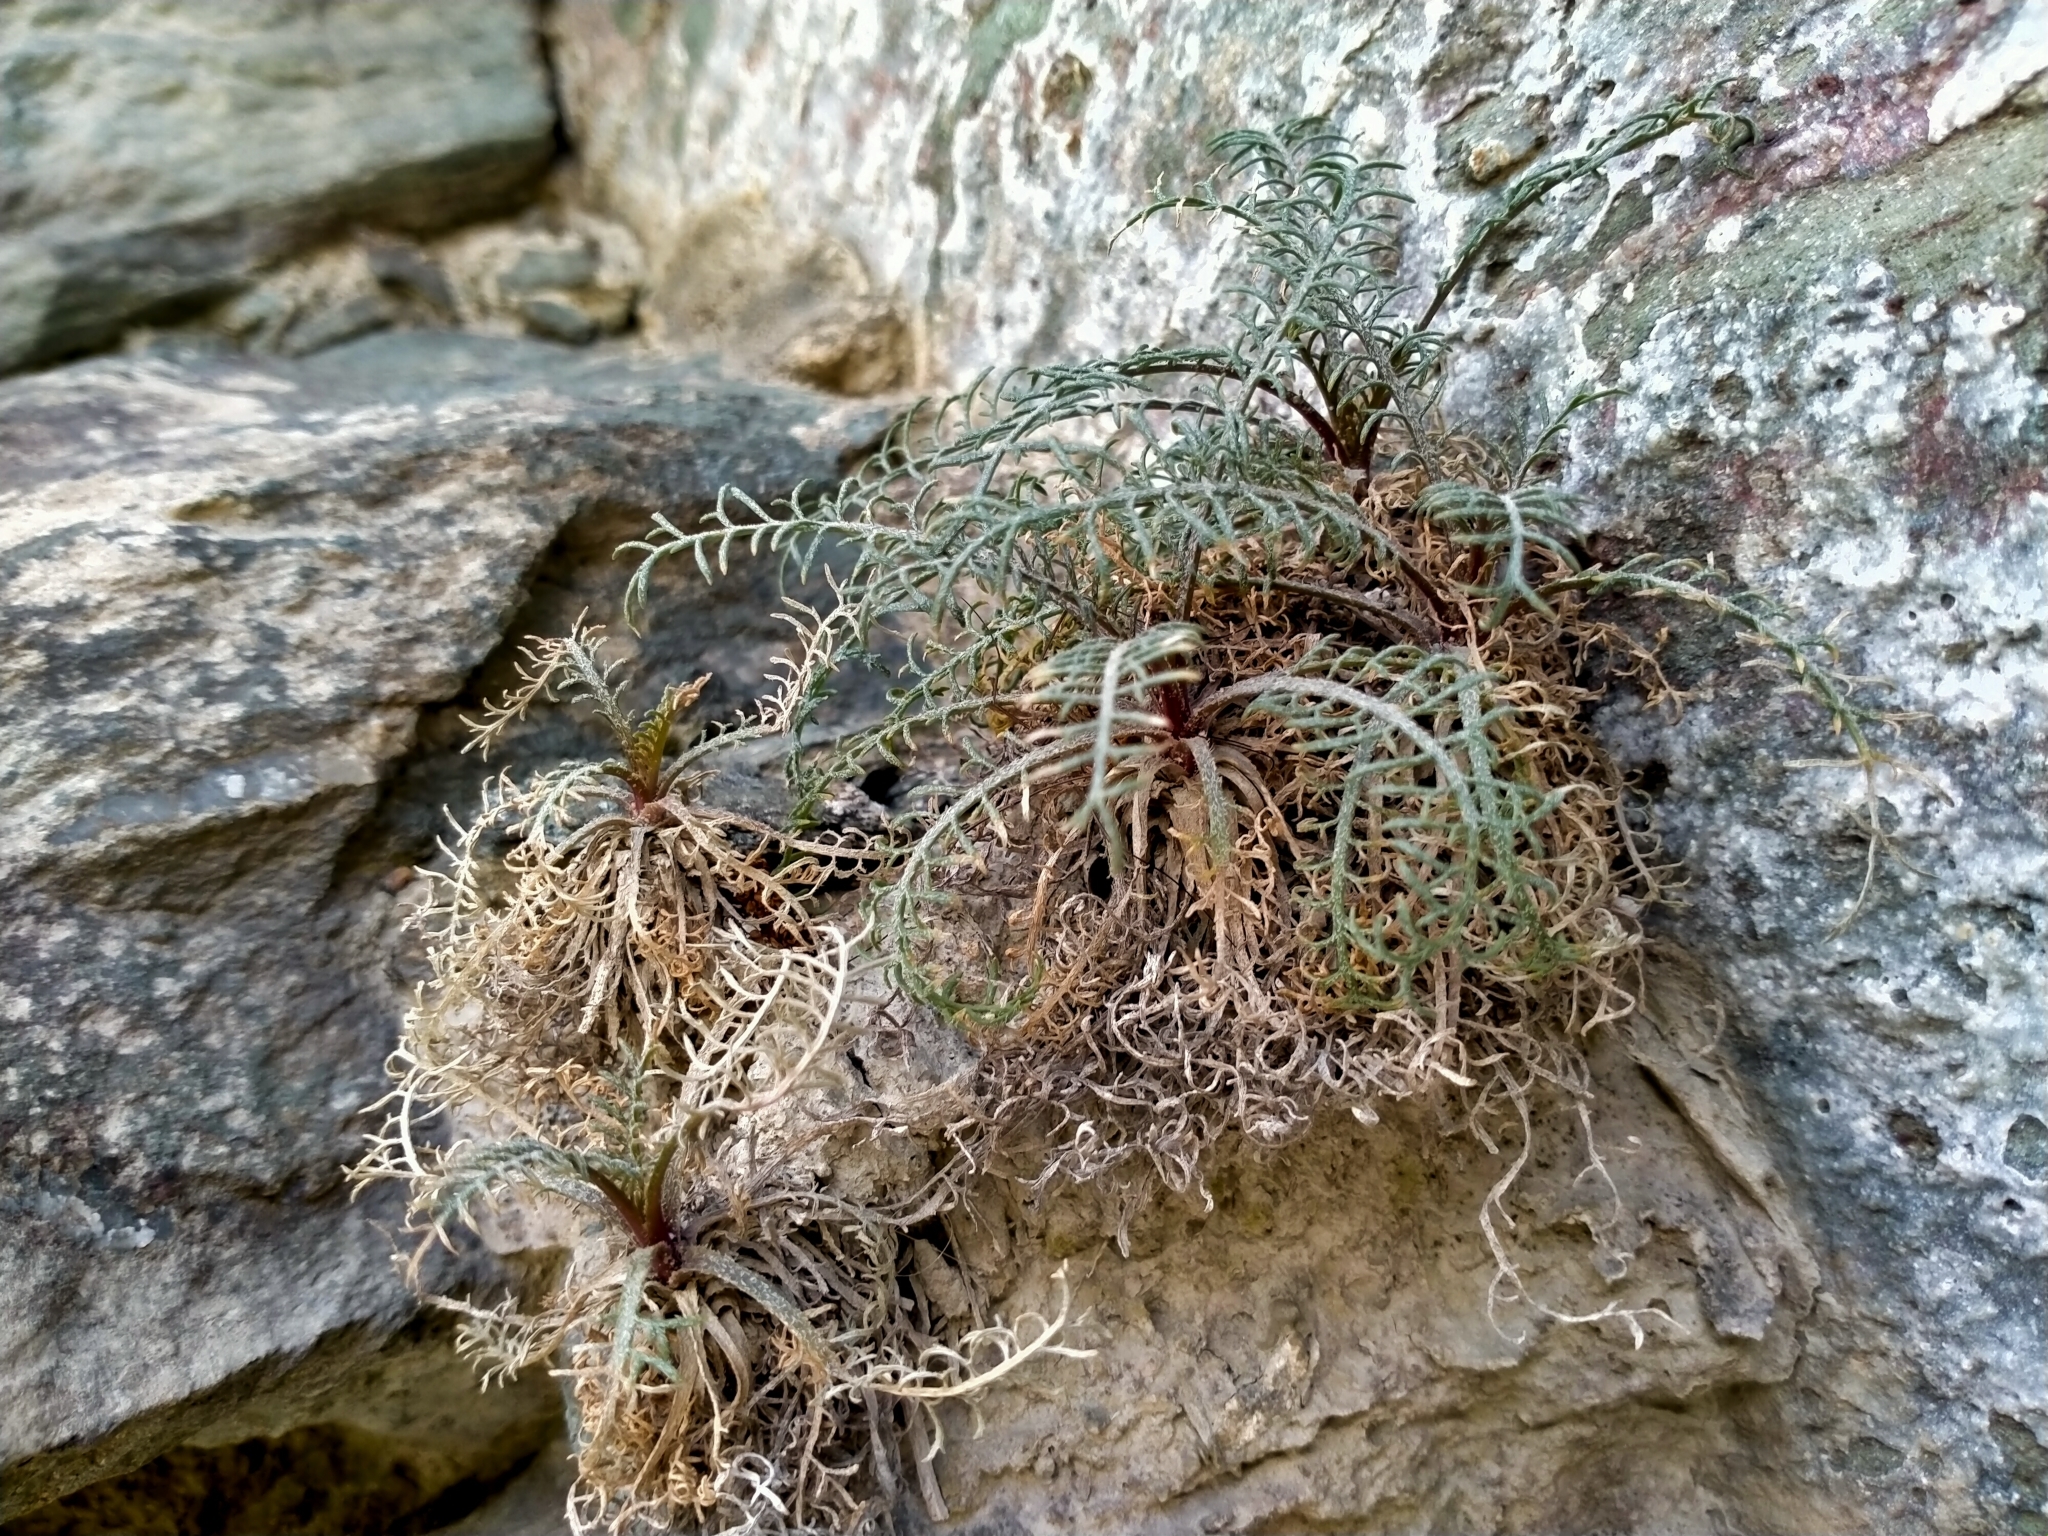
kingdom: Plantae
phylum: Tracheophyta
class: Magnoliopsida
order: Brassicales
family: Brassicaceae
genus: Lepidium
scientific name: Lepidium sisymbrioides
